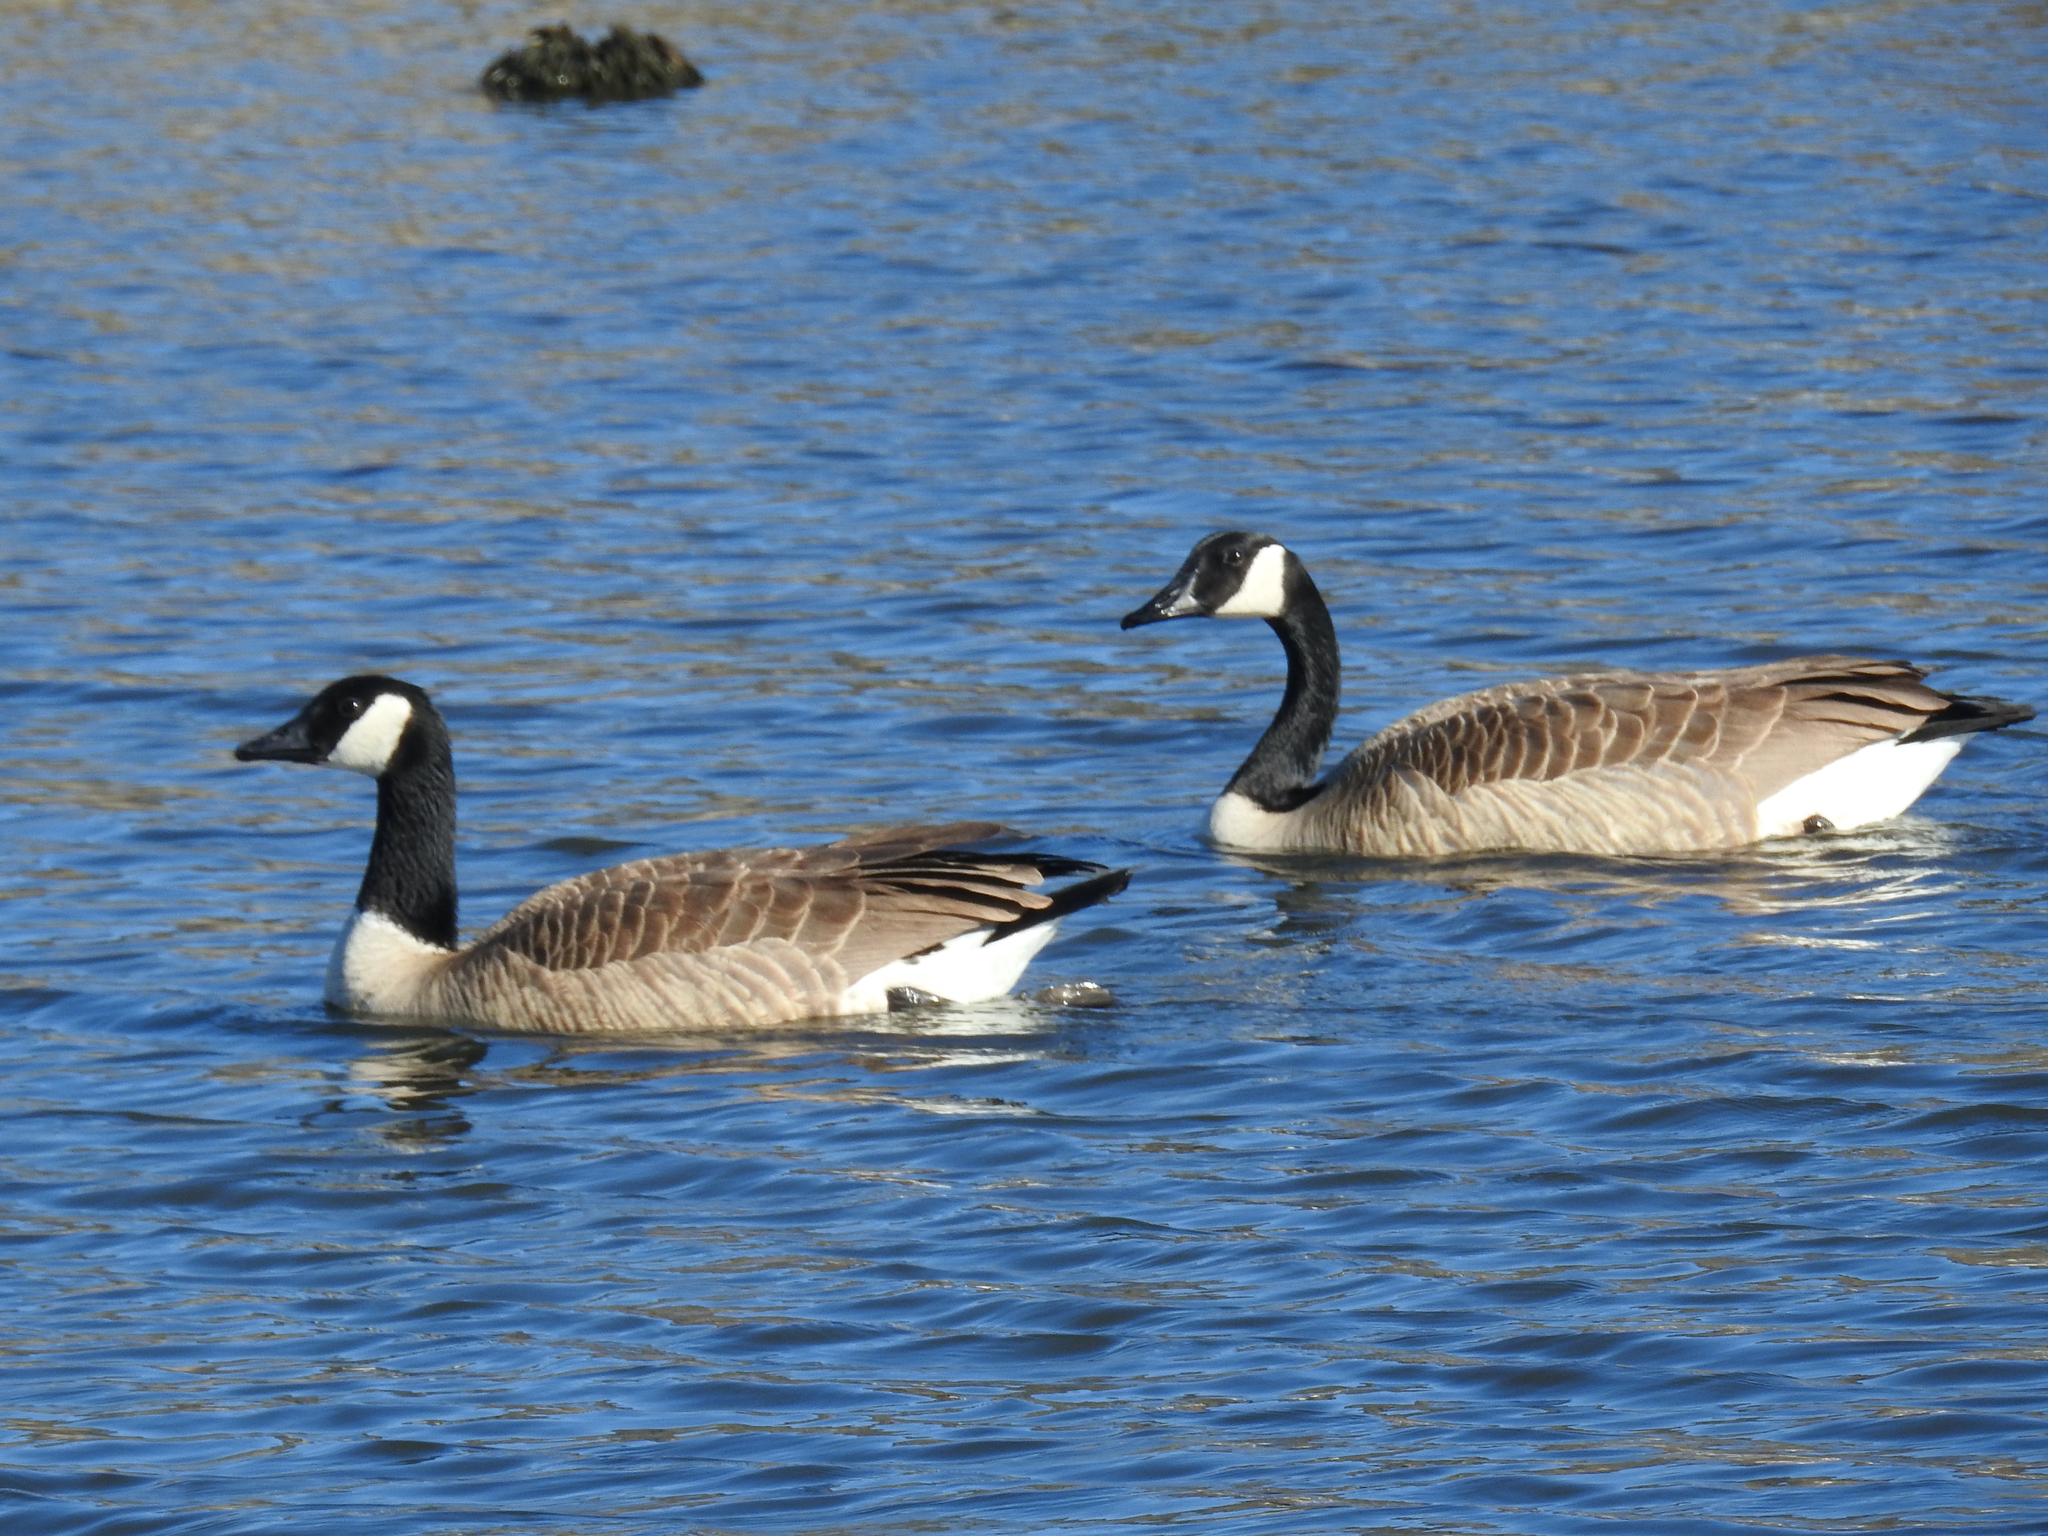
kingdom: Animalia
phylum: Chordata
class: Aves
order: Anseriformes
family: Anatidae
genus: Branta
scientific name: Branta canadensis
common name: Canada goose
